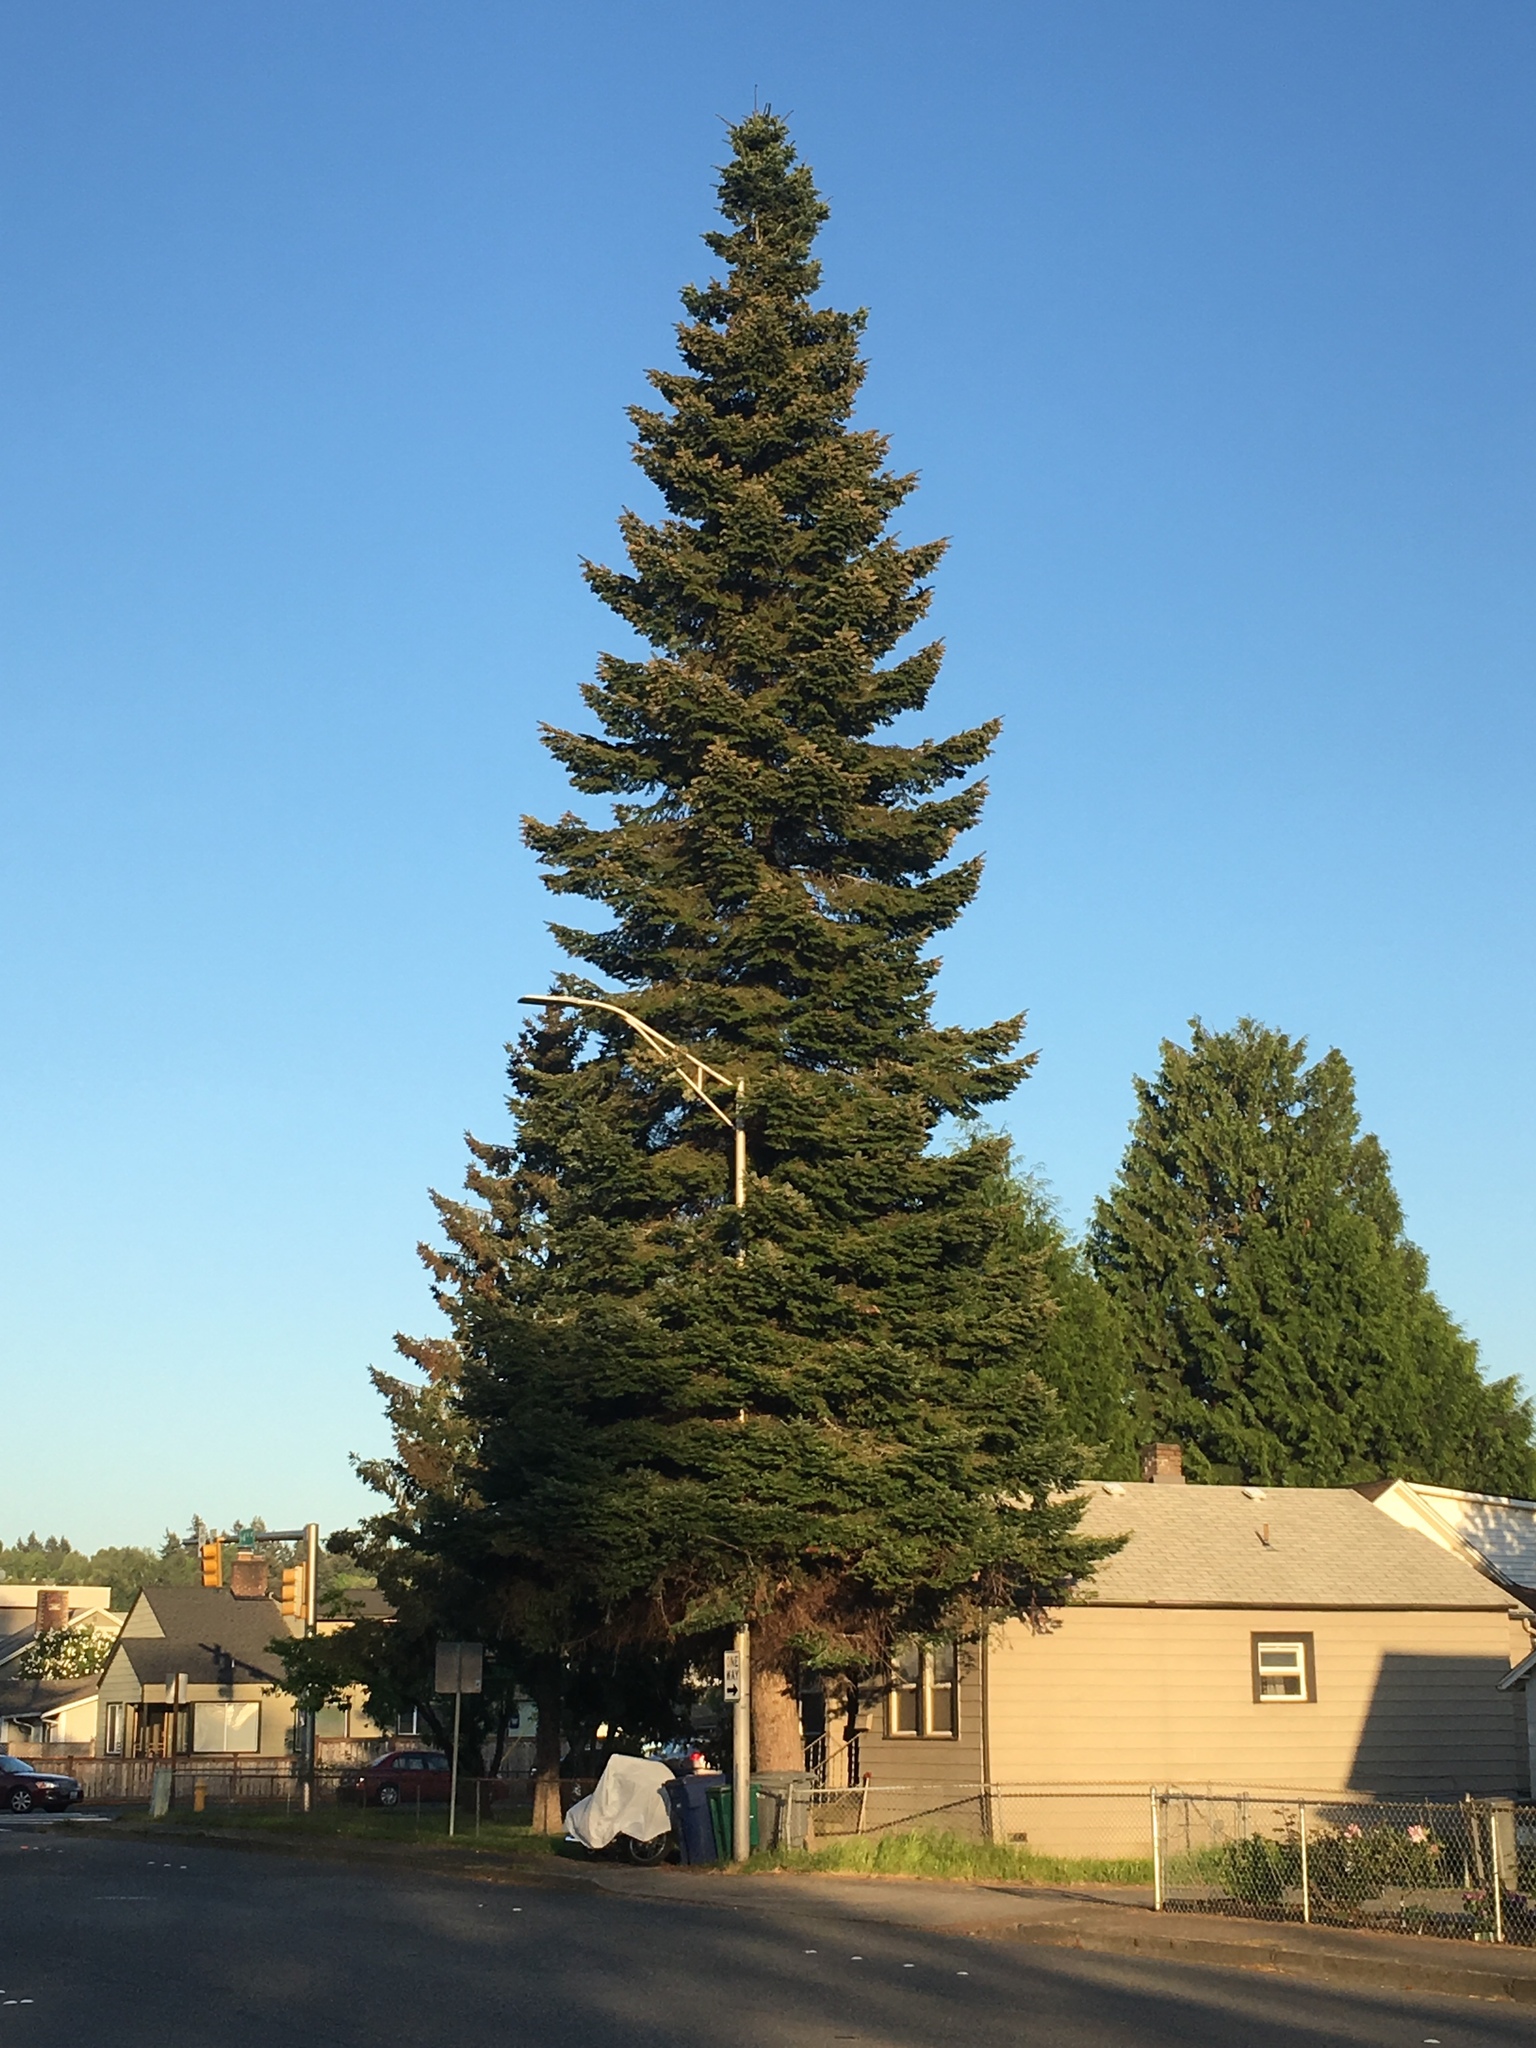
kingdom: Plantae
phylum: Tracheophyta
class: Pinopsida
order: Pinales
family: Pinaceae
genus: Abies
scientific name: Abies grandis
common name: Giant fir
